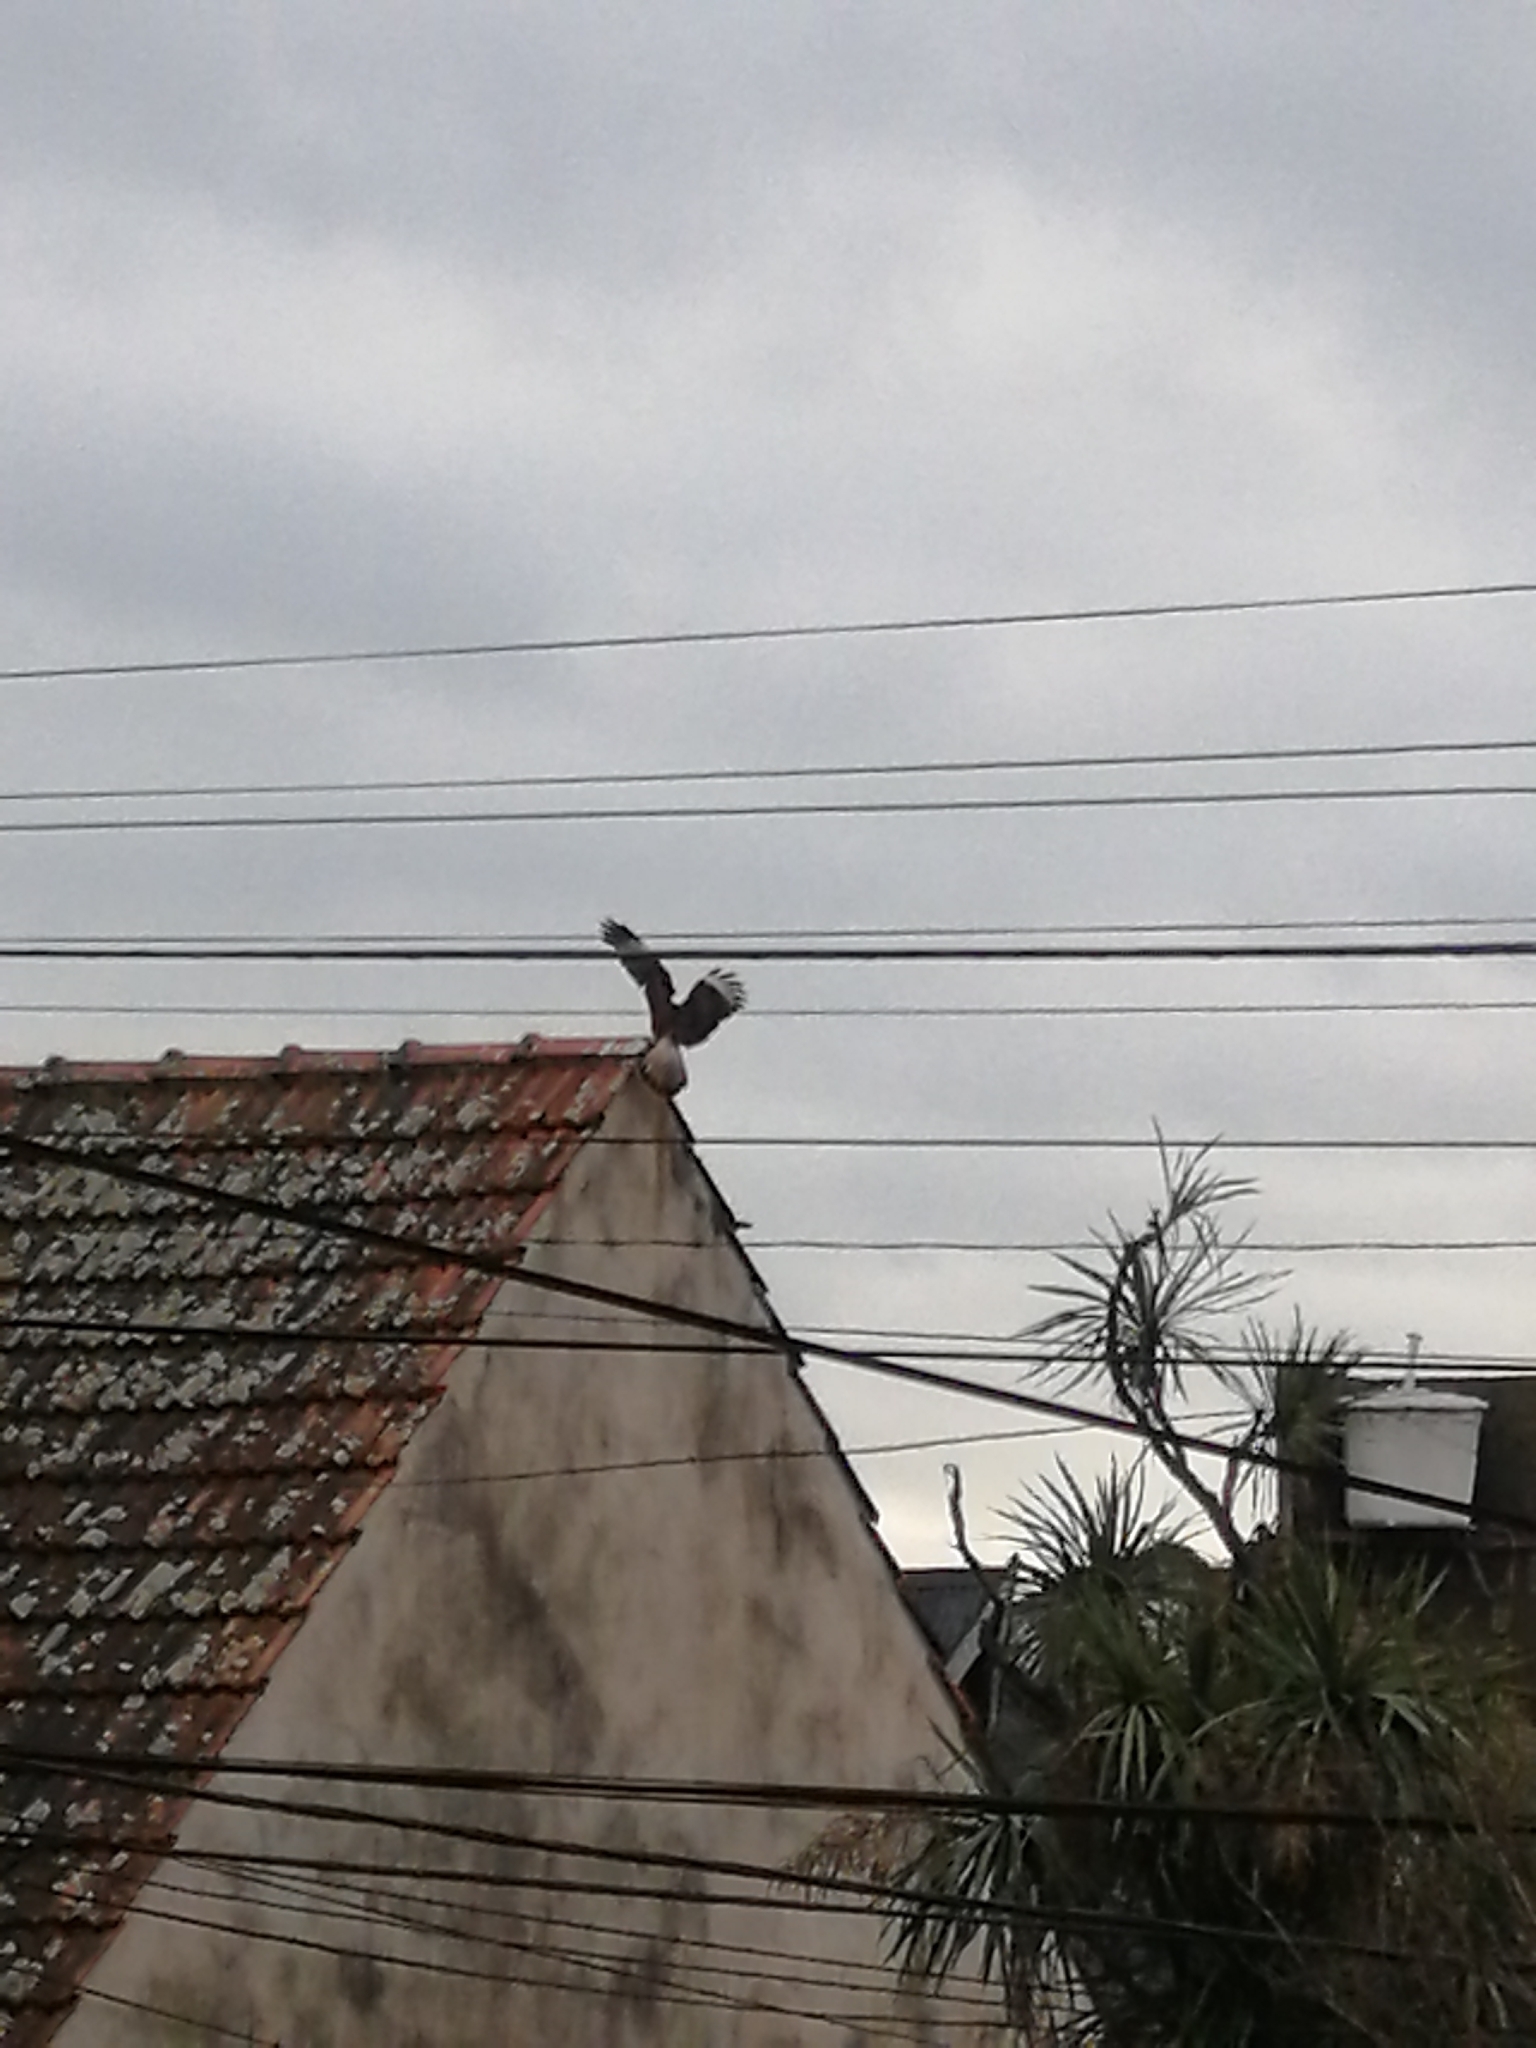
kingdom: Animalia
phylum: Chordata
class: Aves
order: Falconiformes
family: Falconidae
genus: Caracara
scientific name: Caracara plancus
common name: Southern caracara
